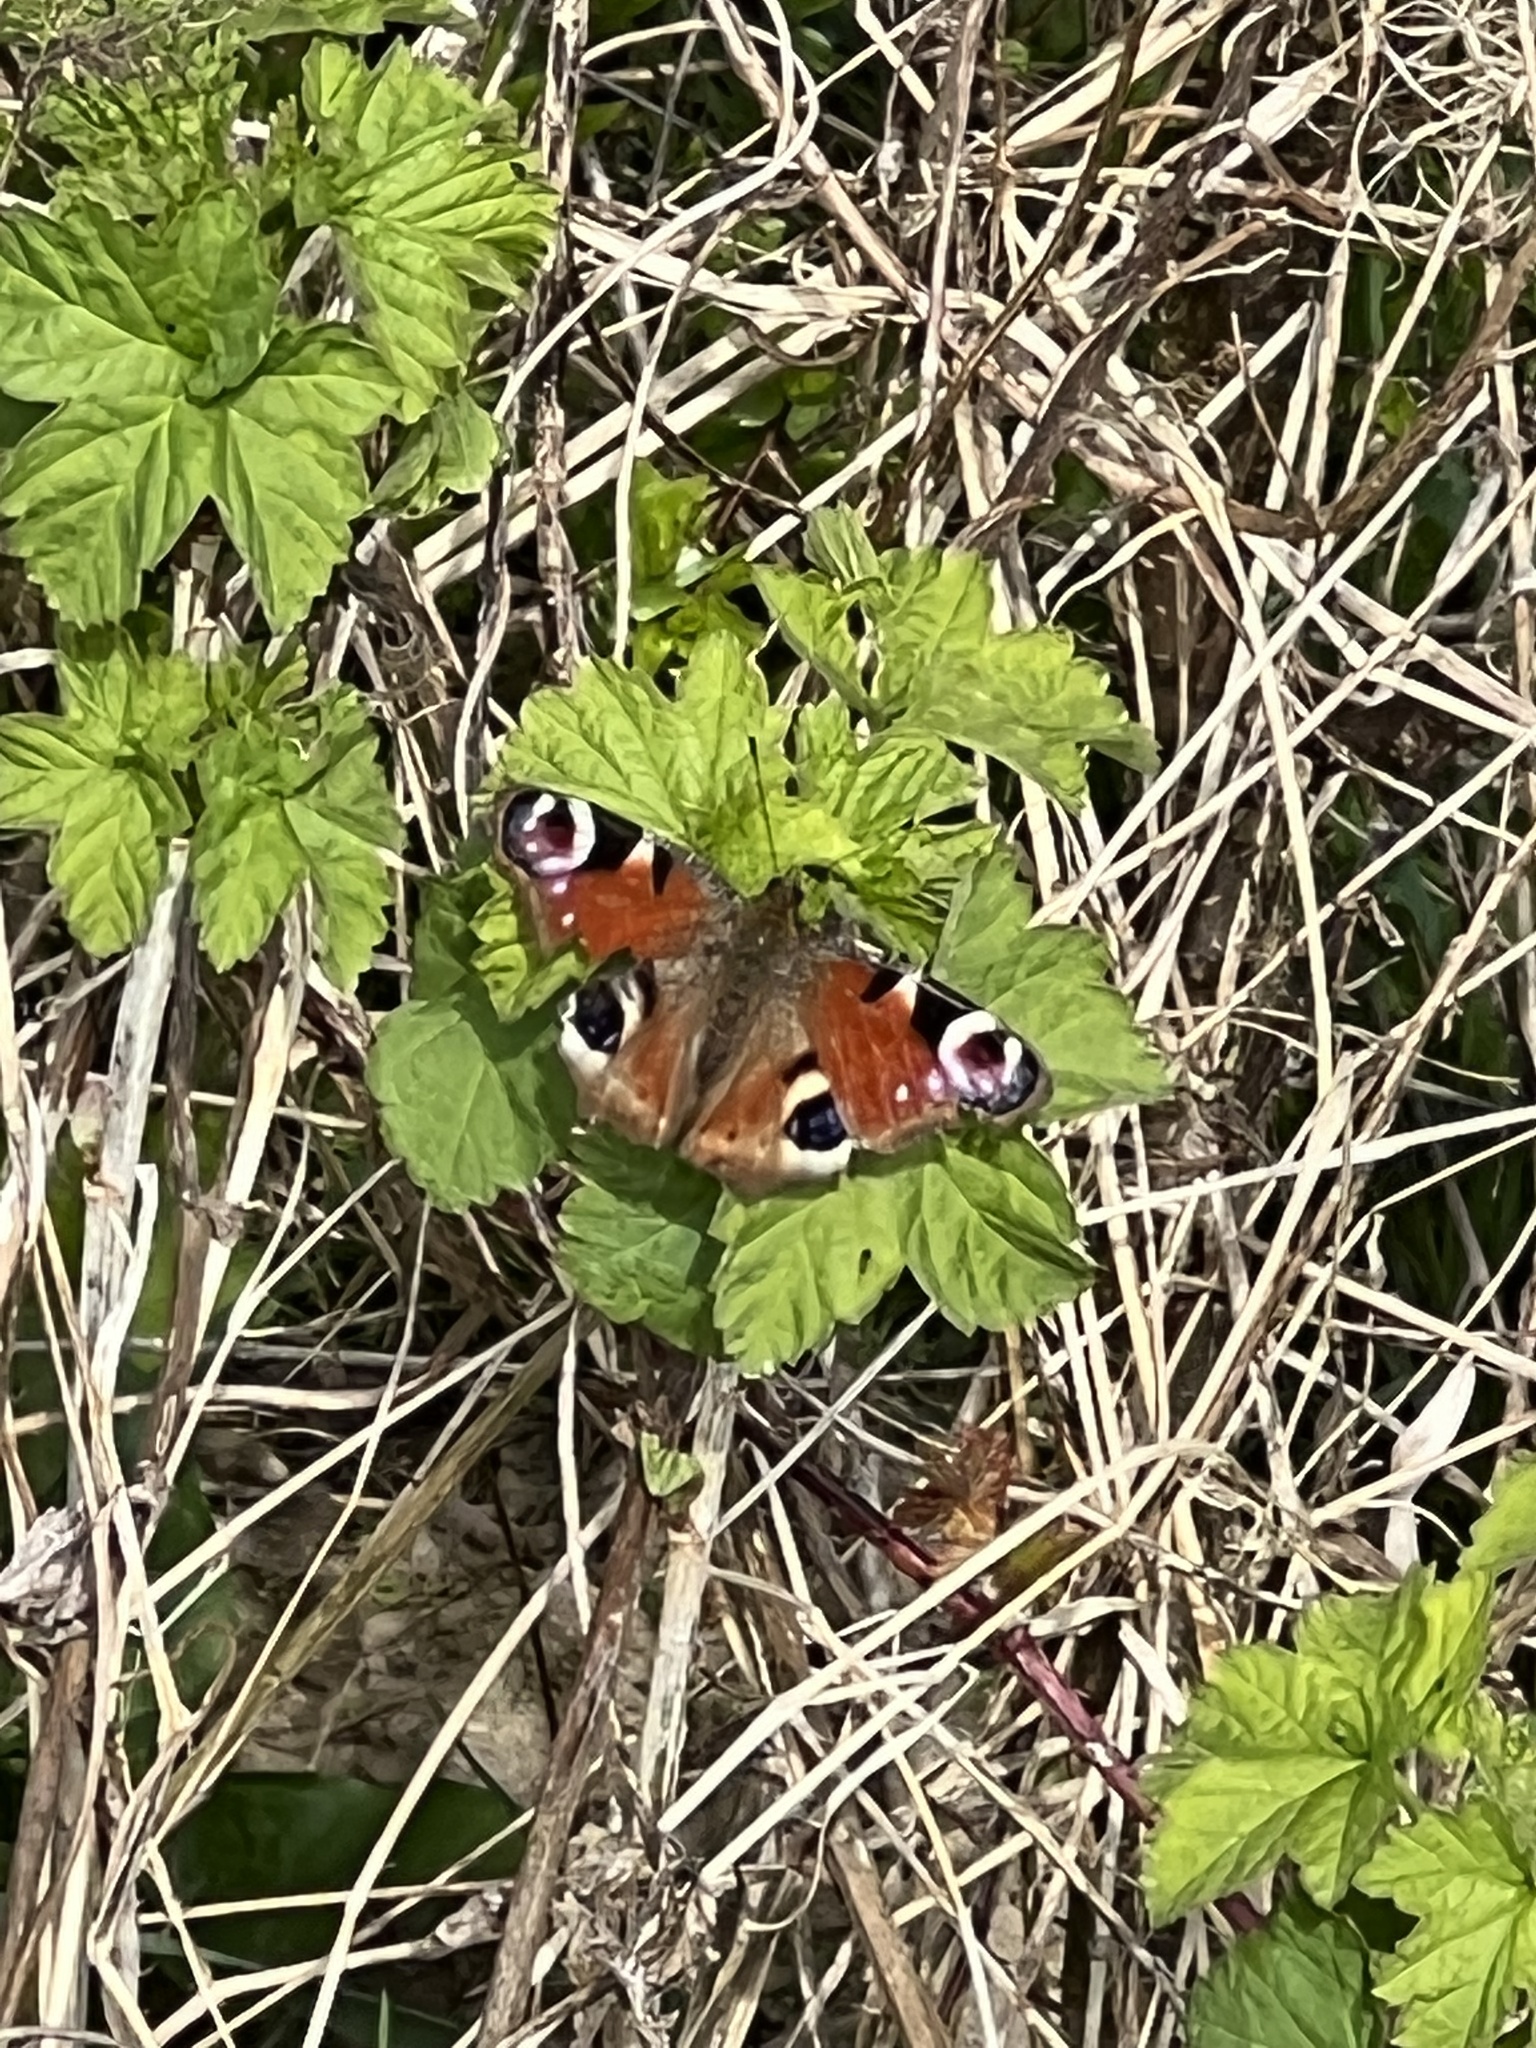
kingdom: Animalia
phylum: Arthropoda
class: Insecta
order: Lepidoptera
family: Nymphalidae
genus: Aglais
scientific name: Aglais io
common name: Peacock
